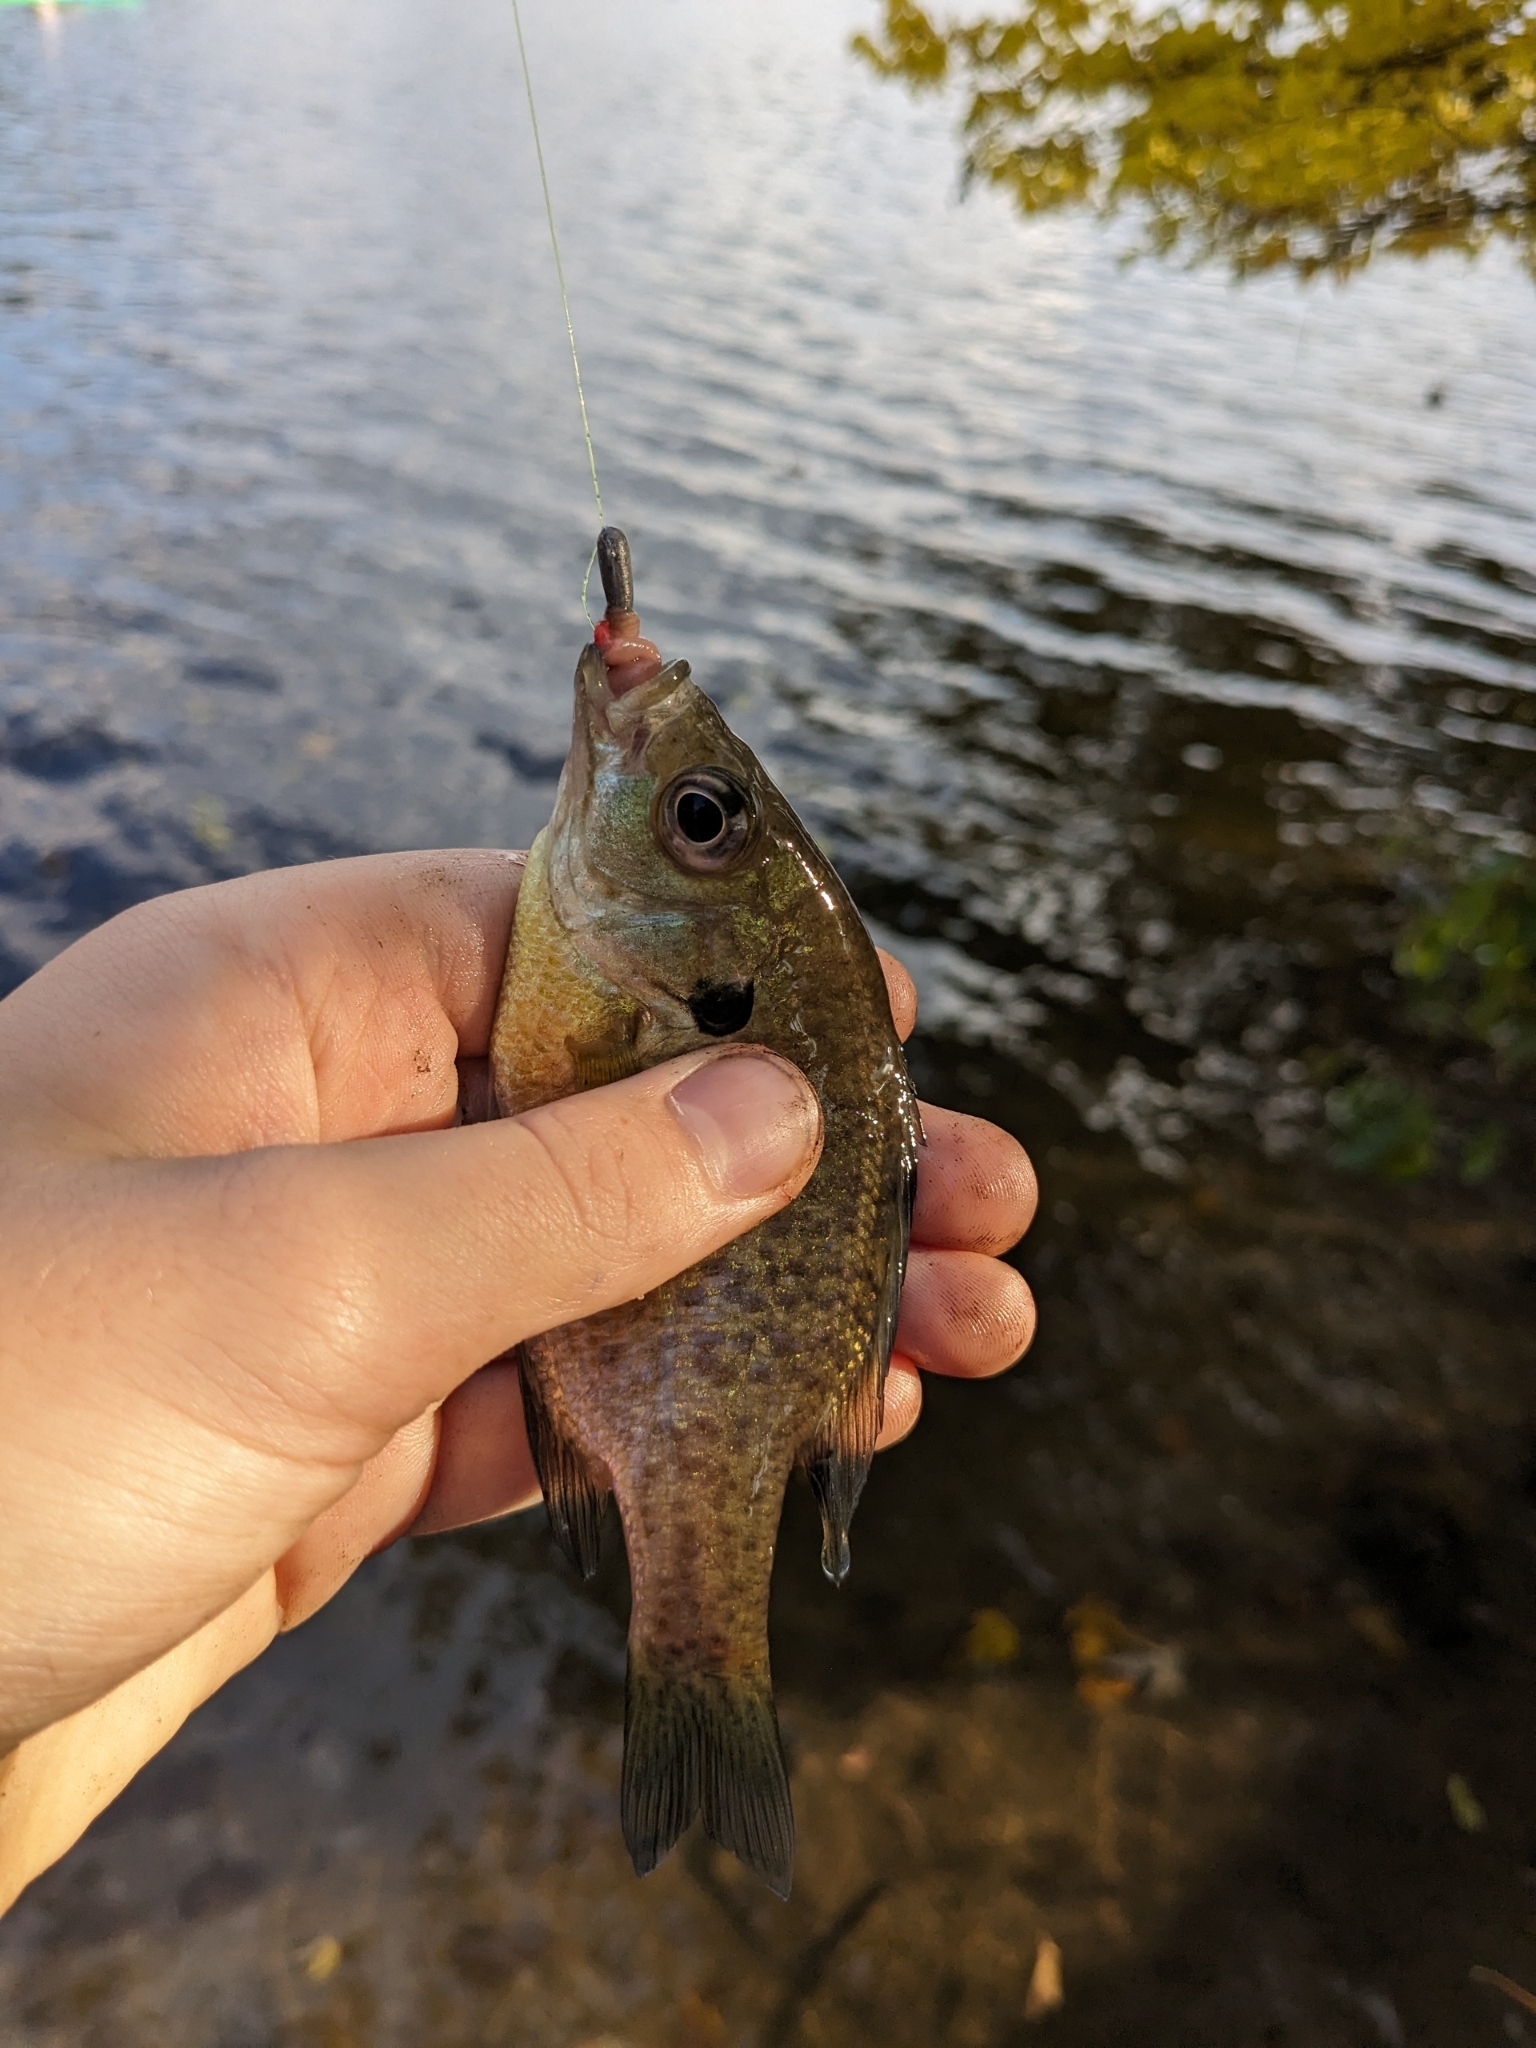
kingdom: Animalia
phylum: Chordata
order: Perciformes
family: Centrarchidae
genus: Lepomis
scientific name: Lepomis macrochirus
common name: Bluegill
